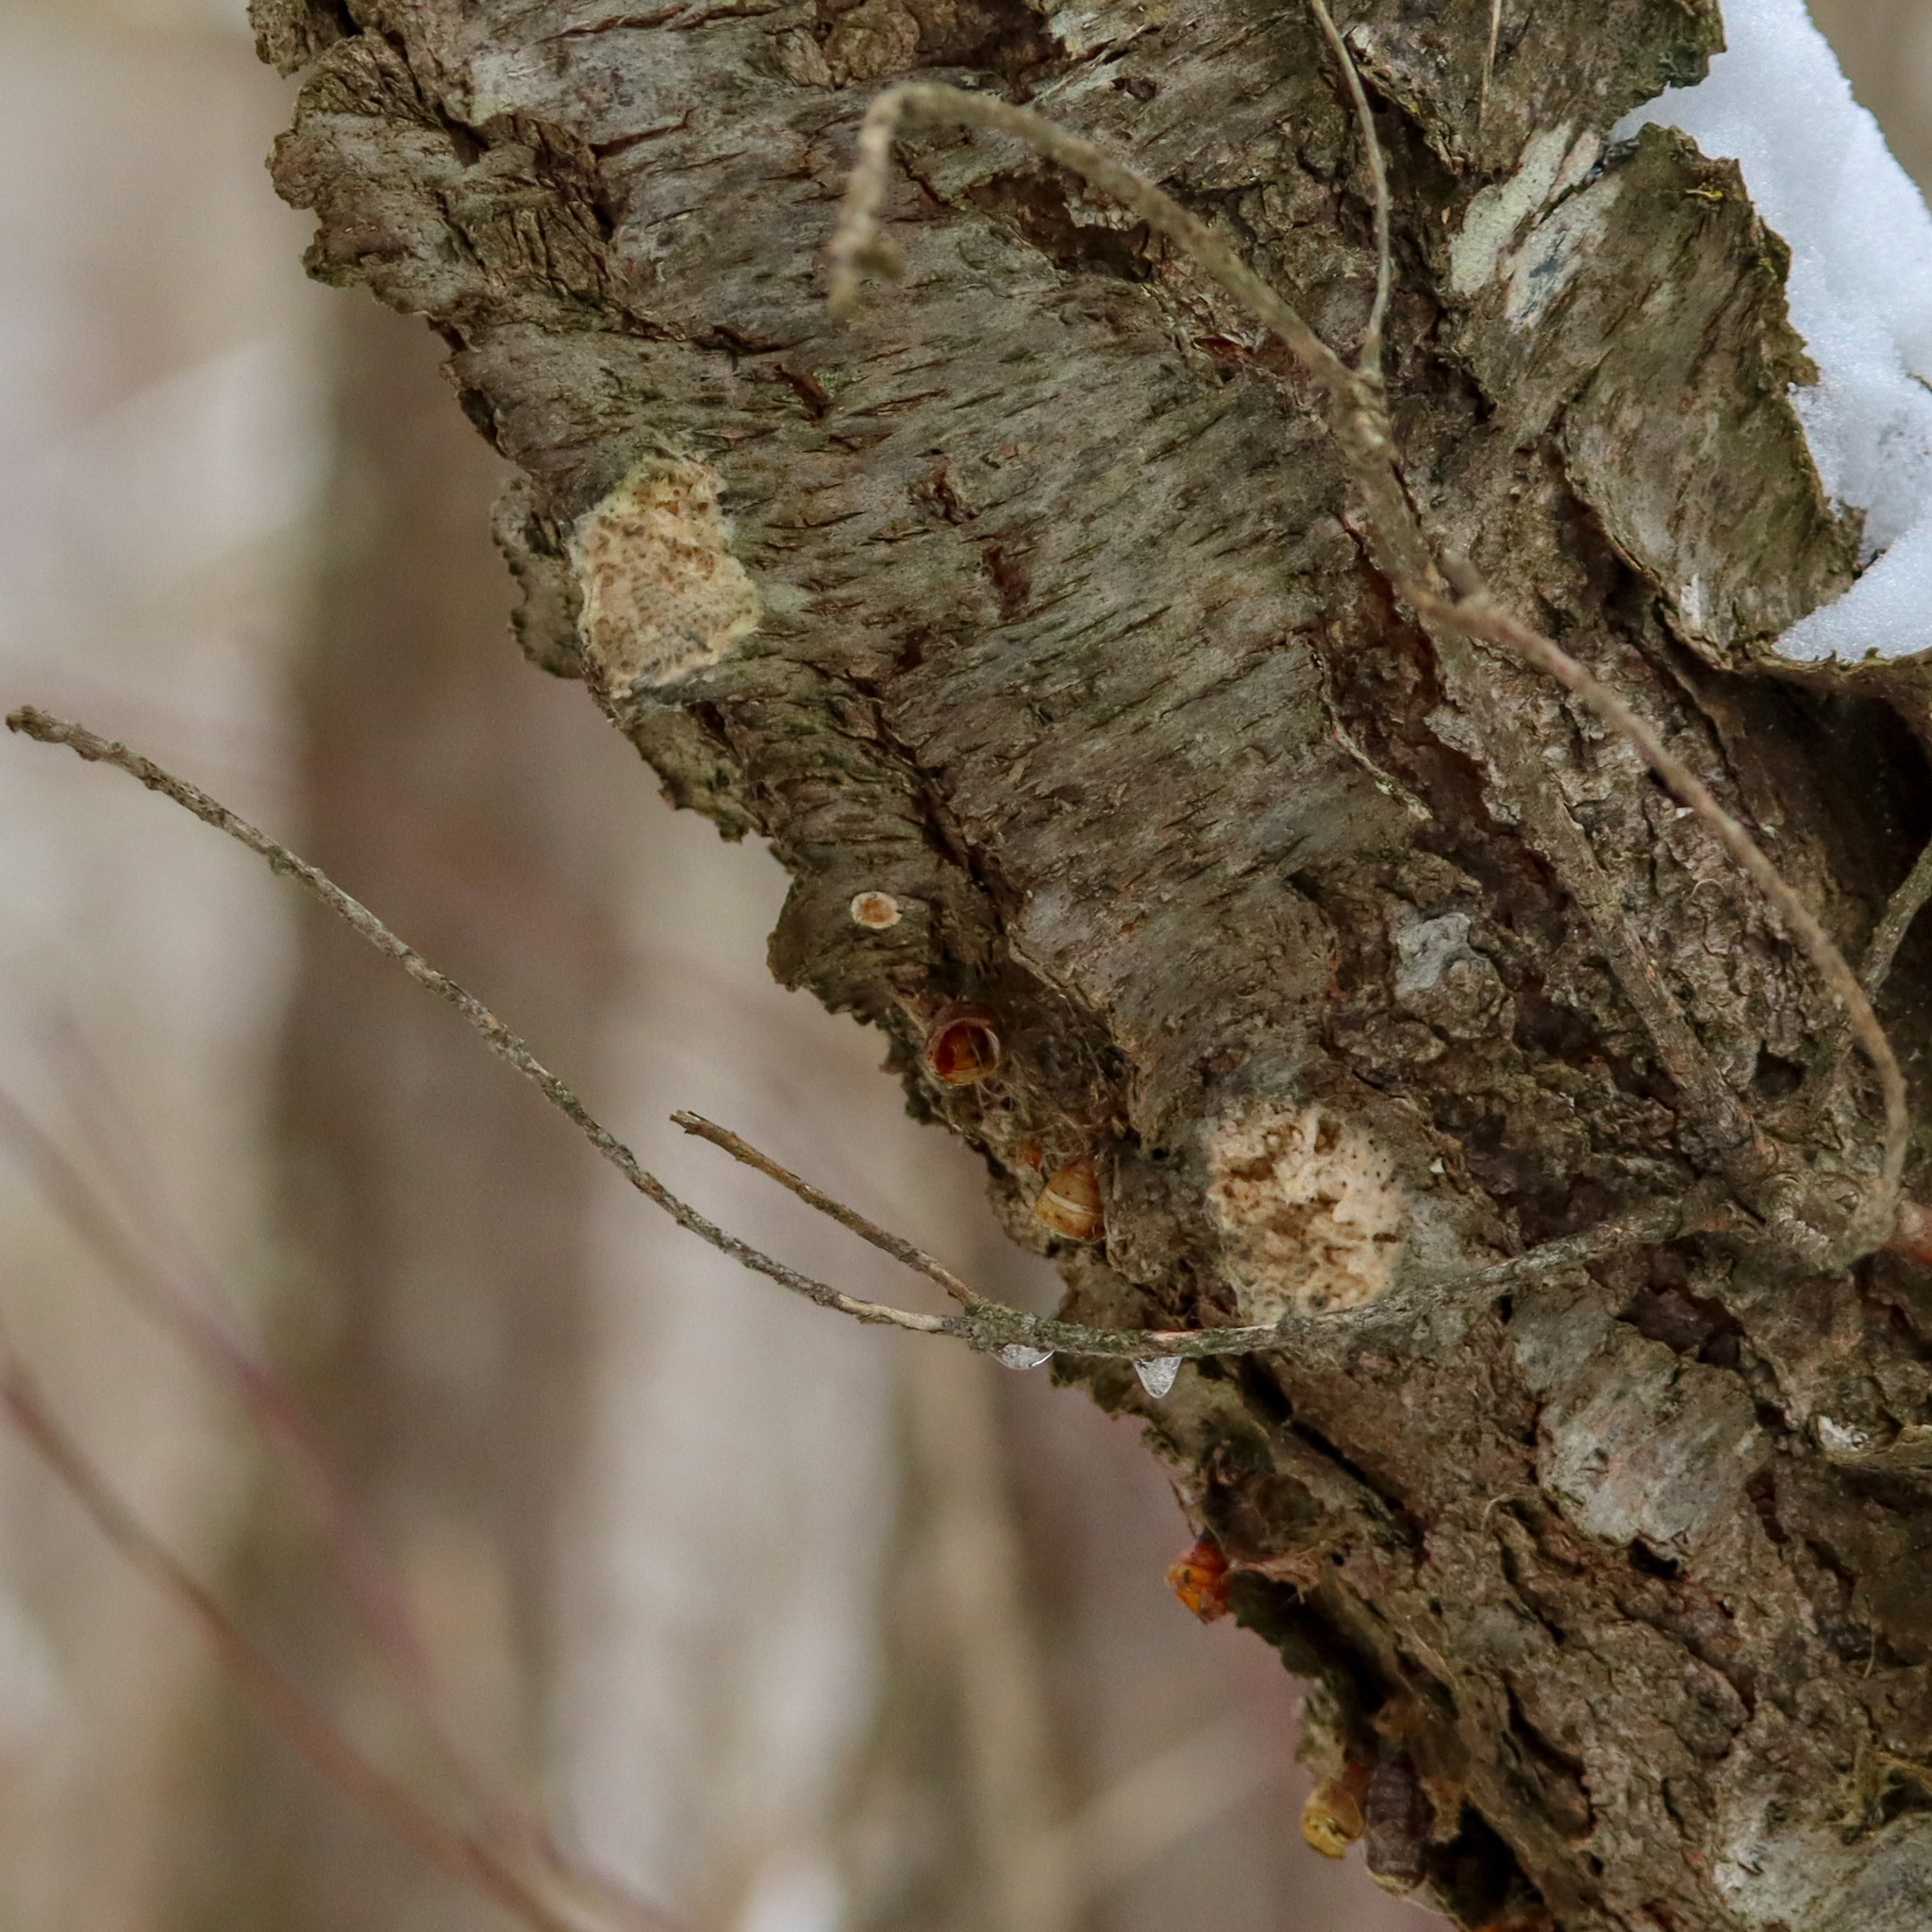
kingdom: Animalia
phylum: Arthropoda
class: Insecta
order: Lepidoptera
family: Erebidae
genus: Lymantria
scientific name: Lymantria dispar
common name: Gypsy moth
